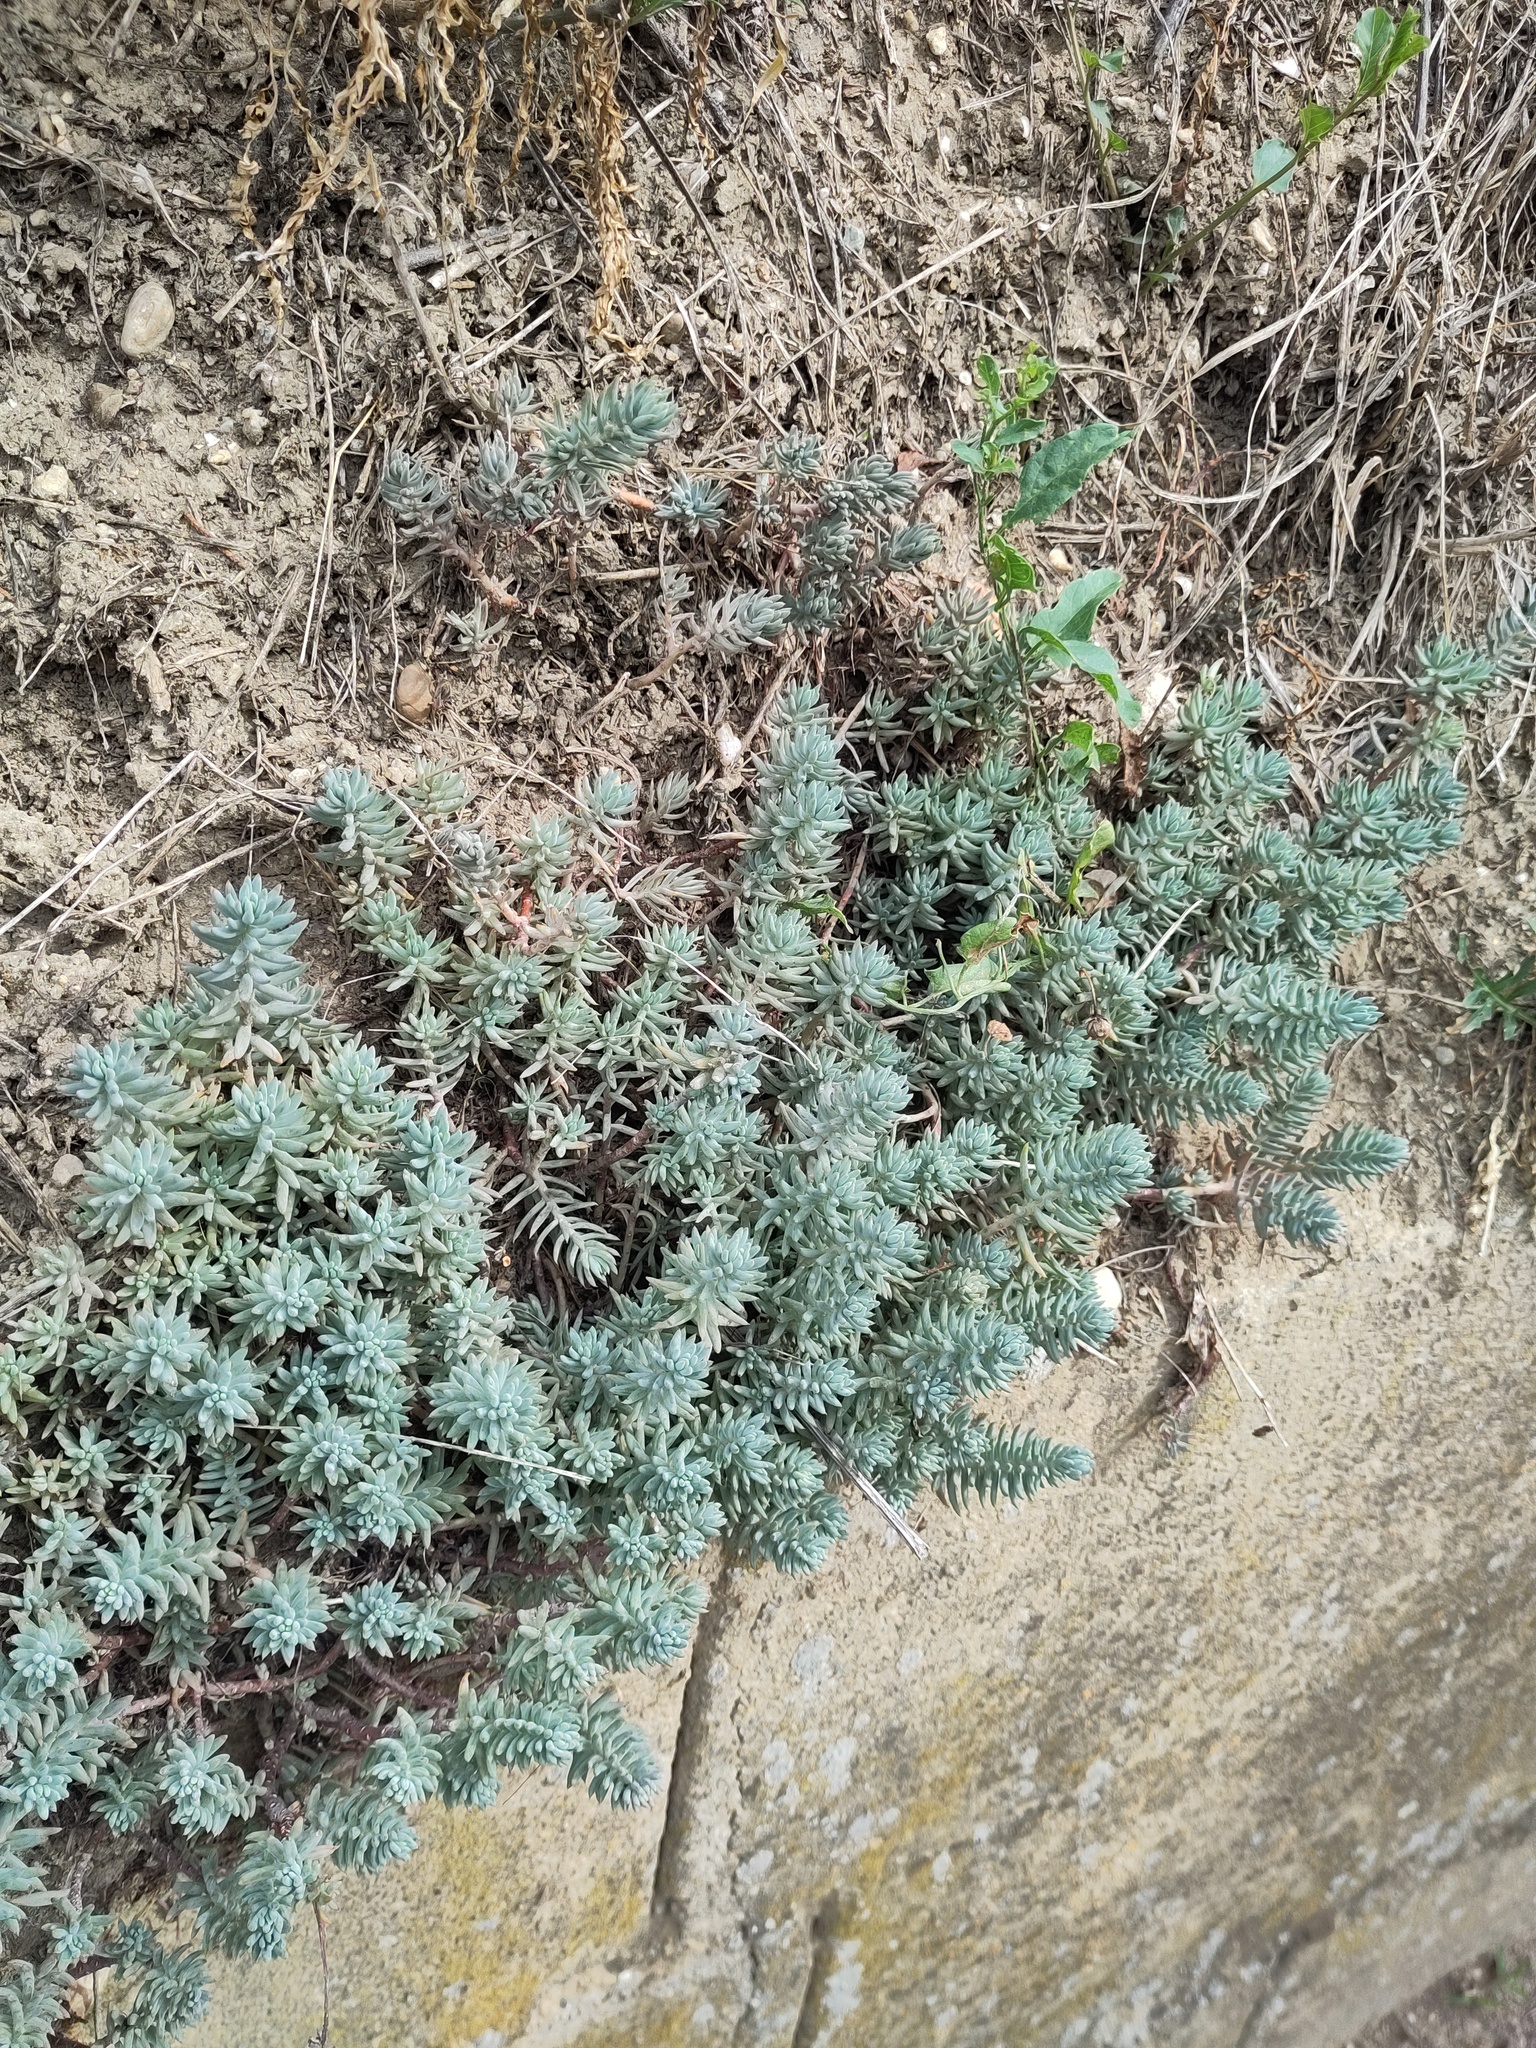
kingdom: Plantae
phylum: Tracheophyta
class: Magnoliopsida
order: Saxifragales
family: Crassulaceae
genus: Petrosedum
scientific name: Petrosedum
